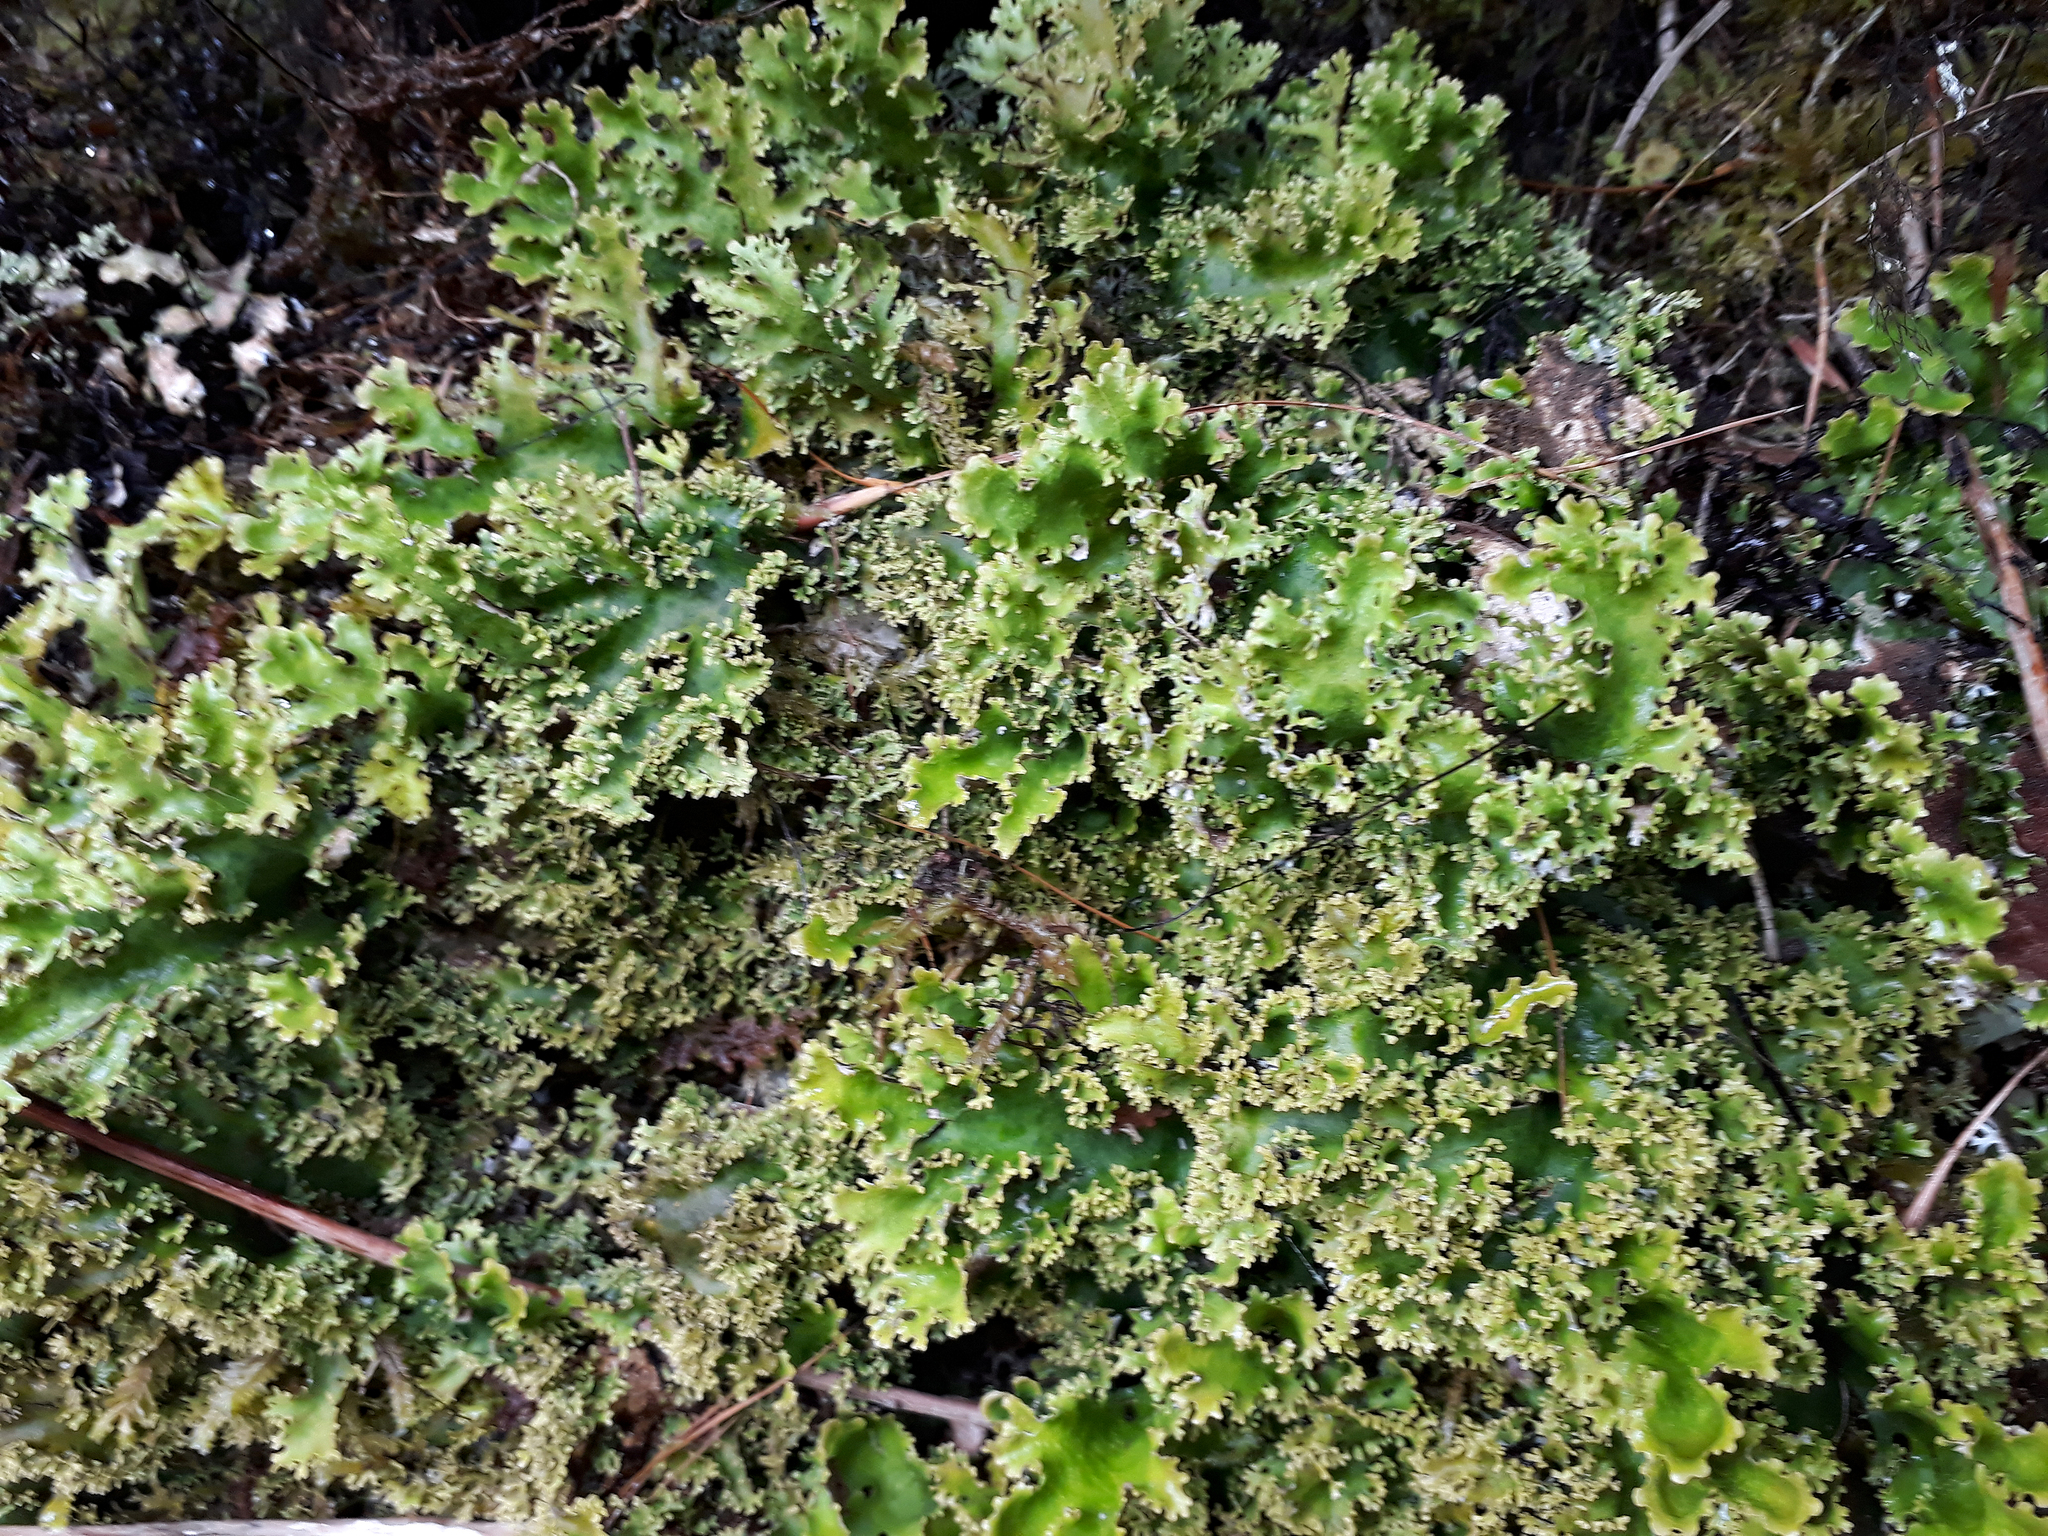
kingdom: Fungi
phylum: Ascomycota
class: Lecanoromycetes
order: Peltigerales
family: Lobariaceae
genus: Pseudocyphellaria
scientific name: Pseudocyphellaria fimbriata
